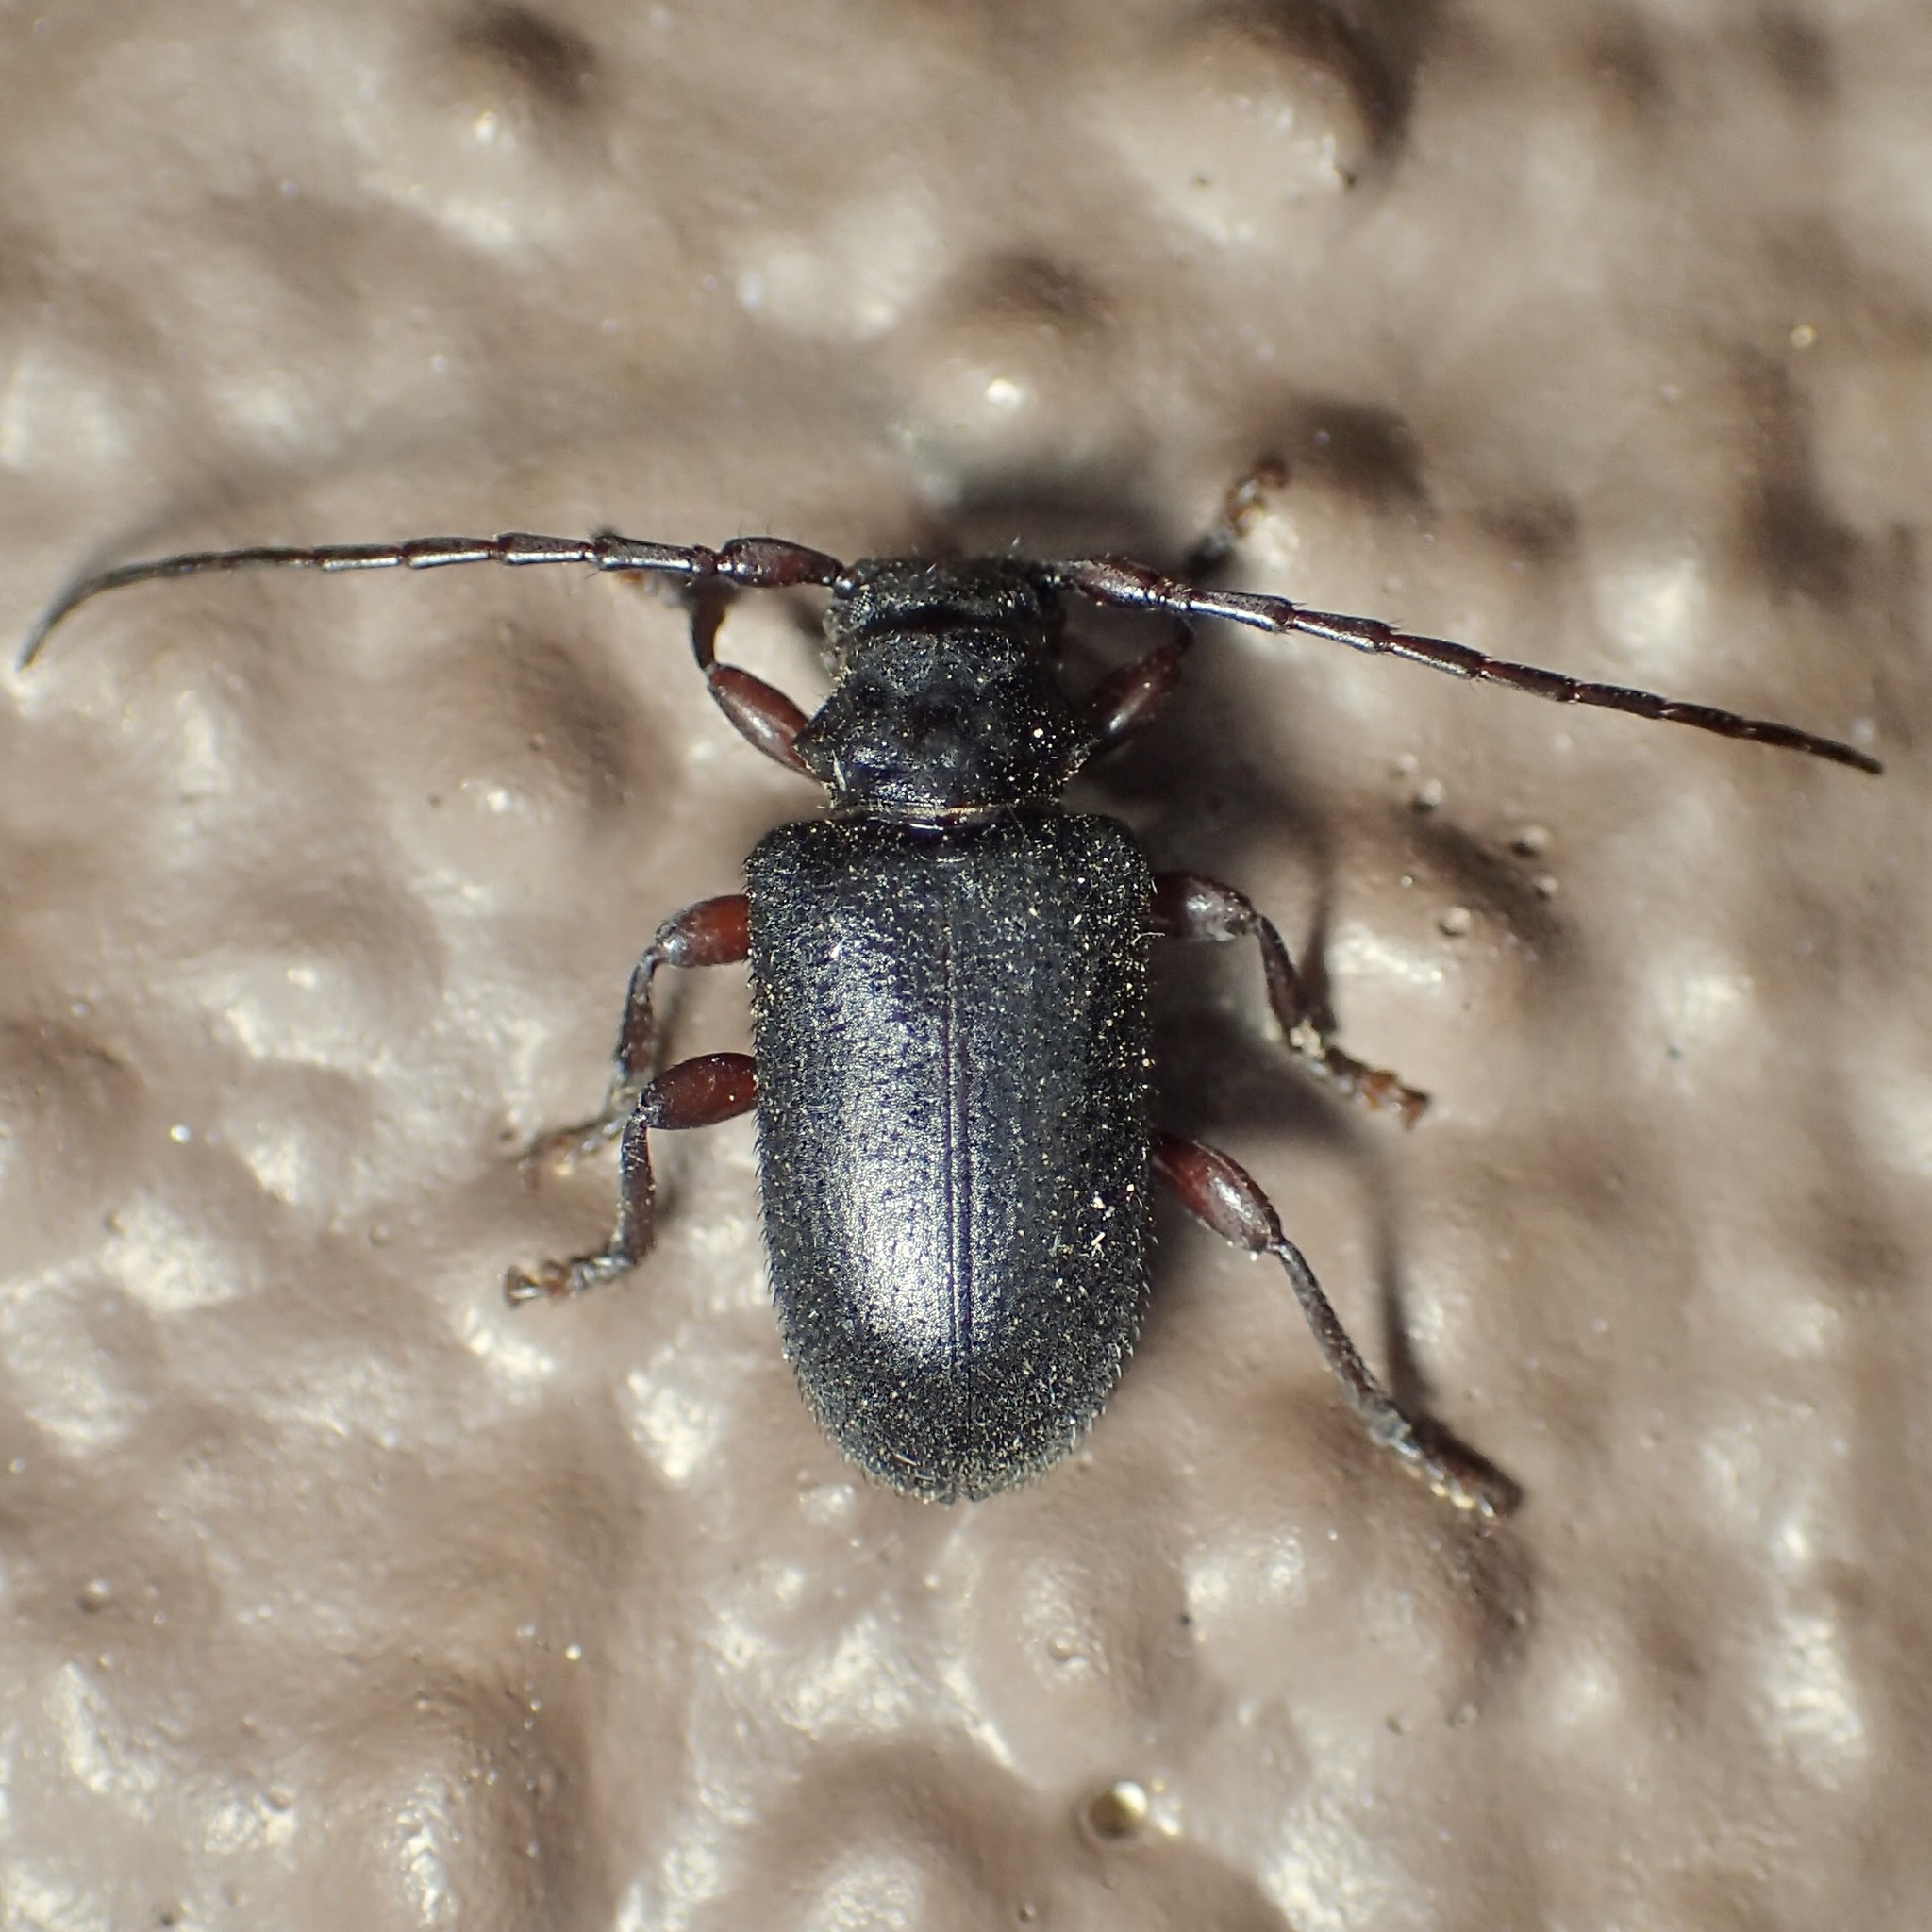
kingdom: Animalia
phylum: Arthropoda
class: Insecta
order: Coleoptera
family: Cerambycidae
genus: Peritapnia
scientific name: Peritapnia fabra
